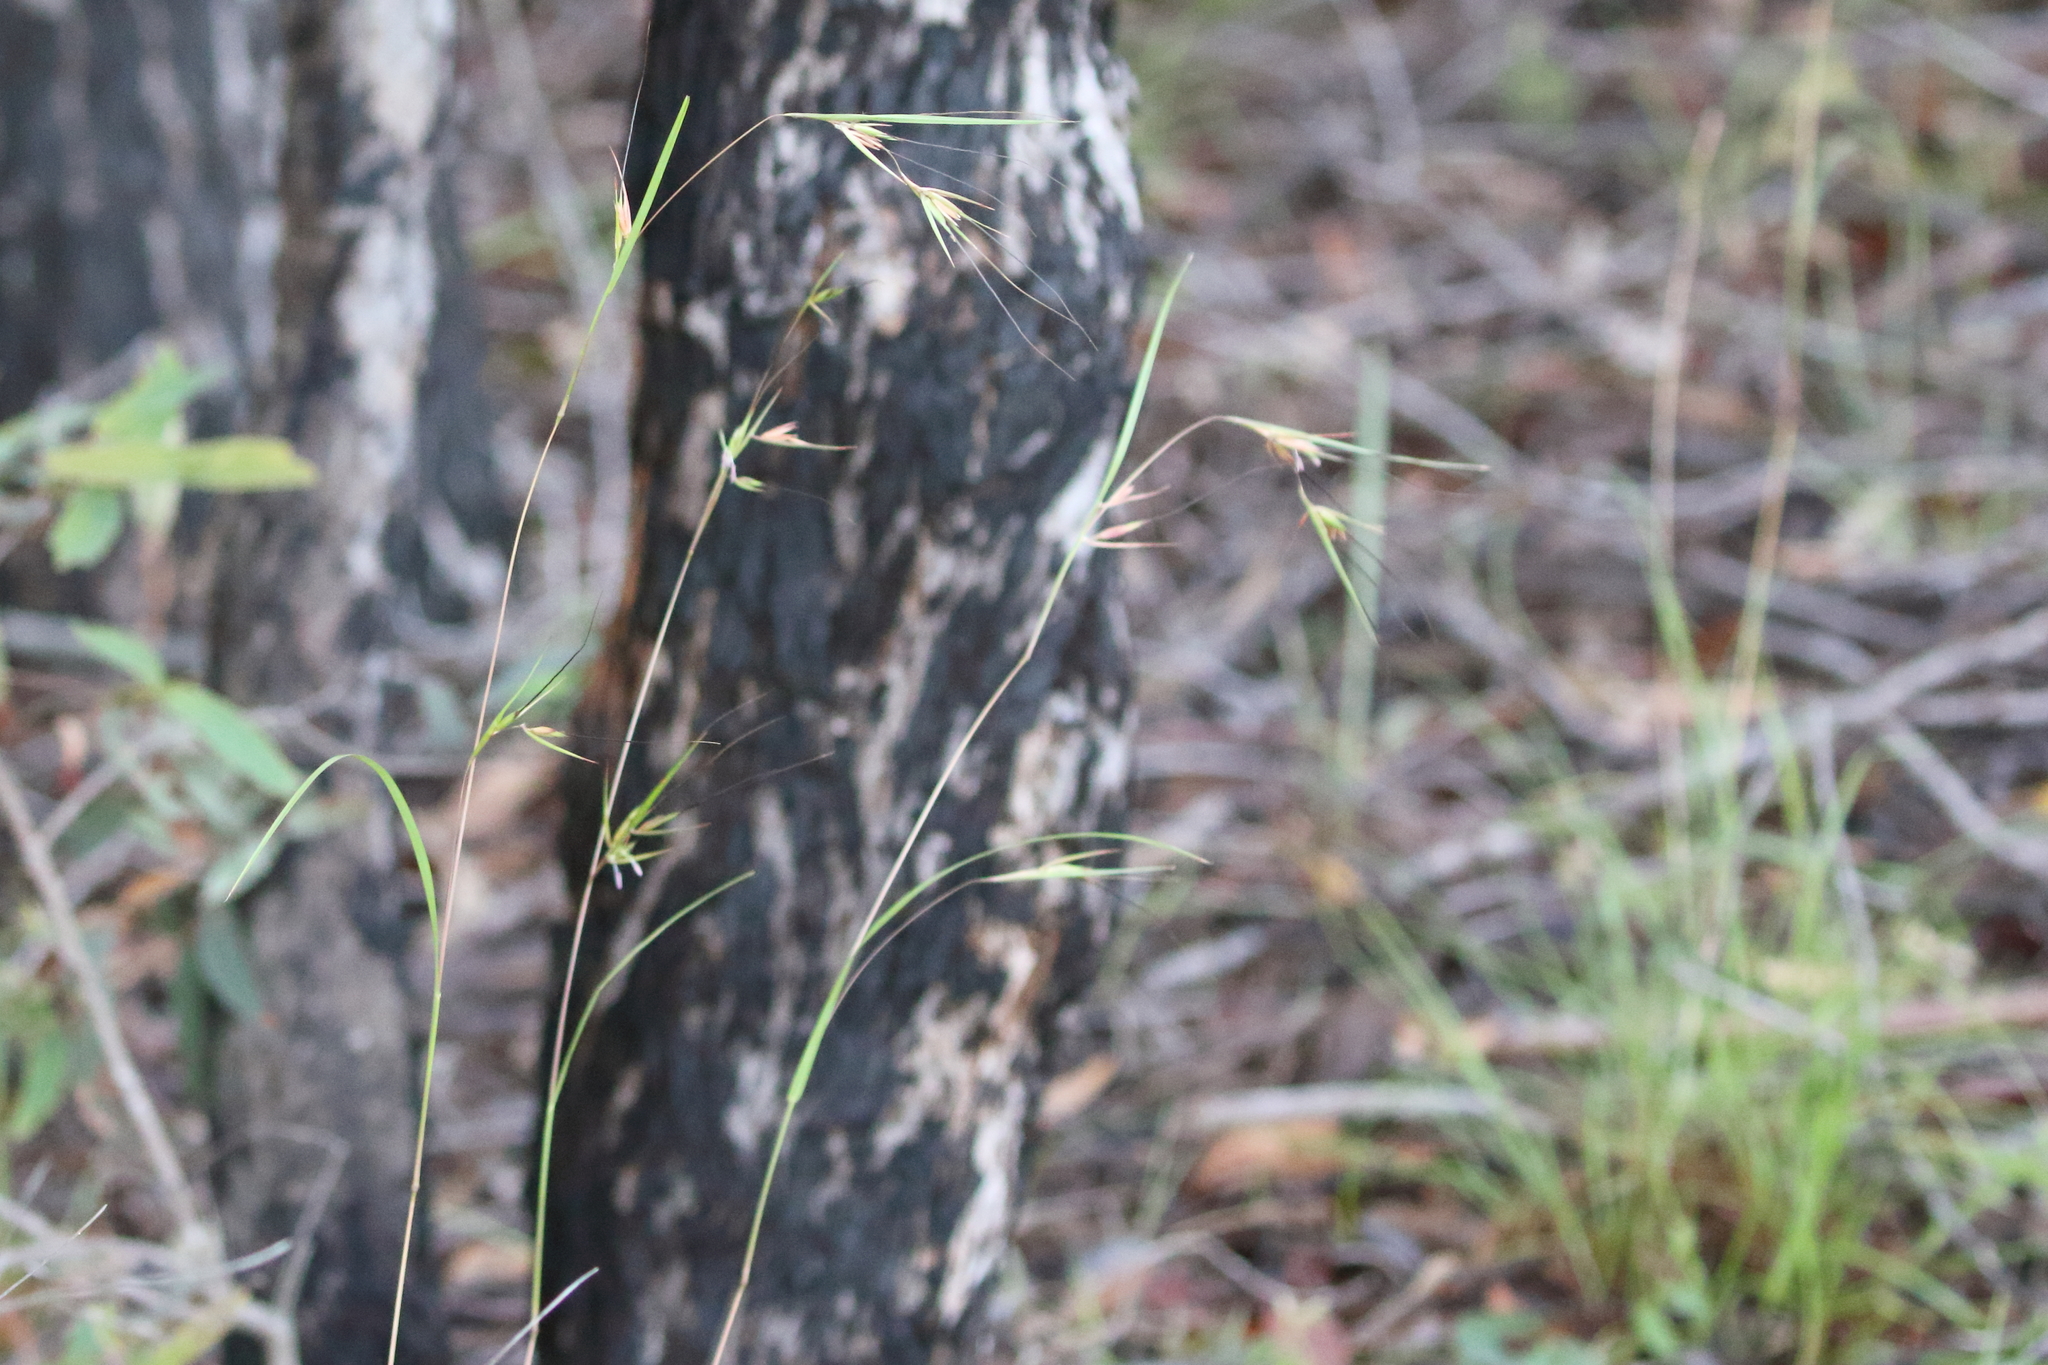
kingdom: Plantae
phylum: Tracheophyta
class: Liliopsida
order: Poales
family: Poaceae
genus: Themeda
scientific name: Themeda triandra
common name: Kangaroo grass
